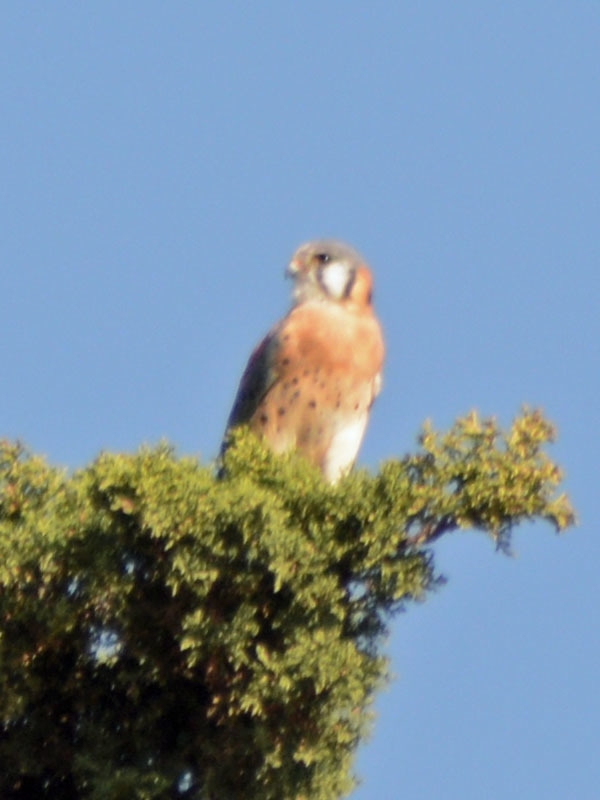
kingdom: Animalia
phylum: Chordata
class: Aves
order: Falconiformes
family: Falconidae
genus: Falco
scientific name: Falco sparverius
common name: American kestrel
